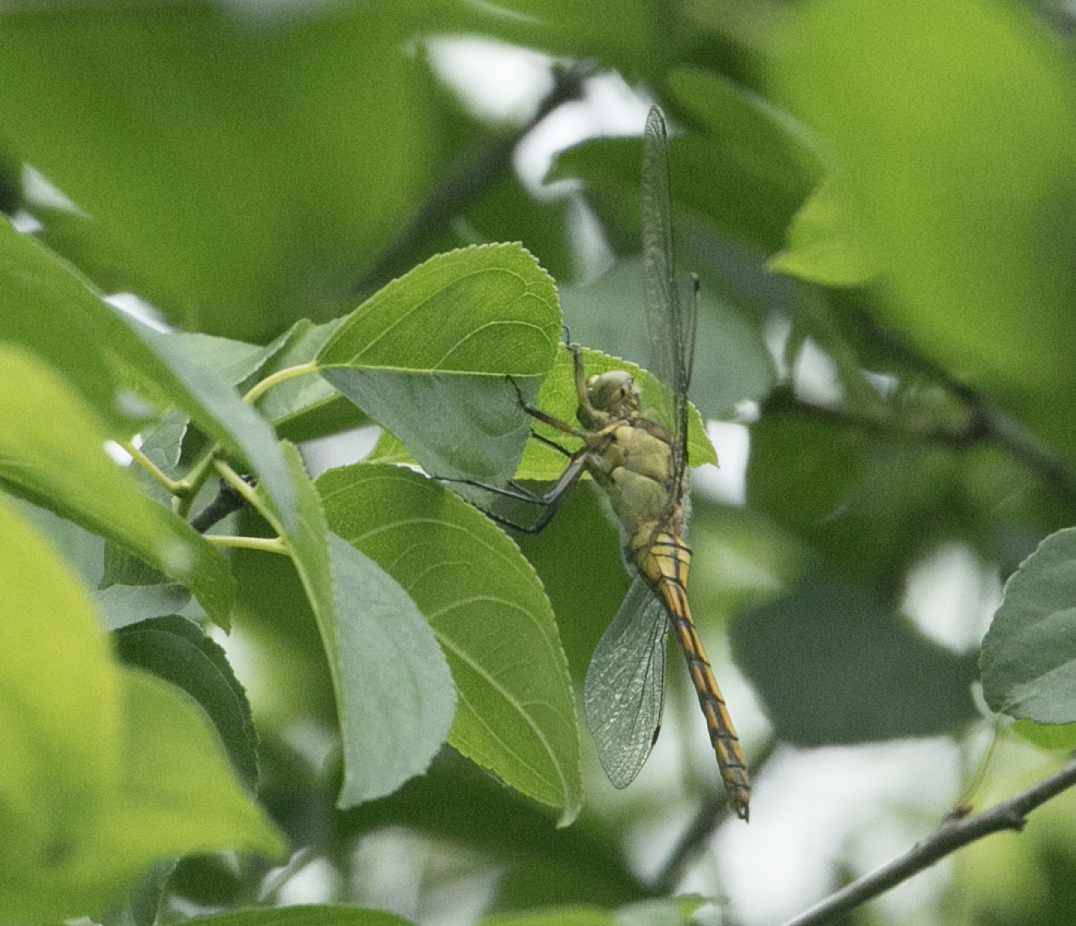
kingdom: Animalia
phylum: Arthropoda
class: Insecta
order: Odonata
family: Libellulidae
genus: Orthetrum
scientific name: Orthetrum cancellatum
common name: Black-tailed skimmer
